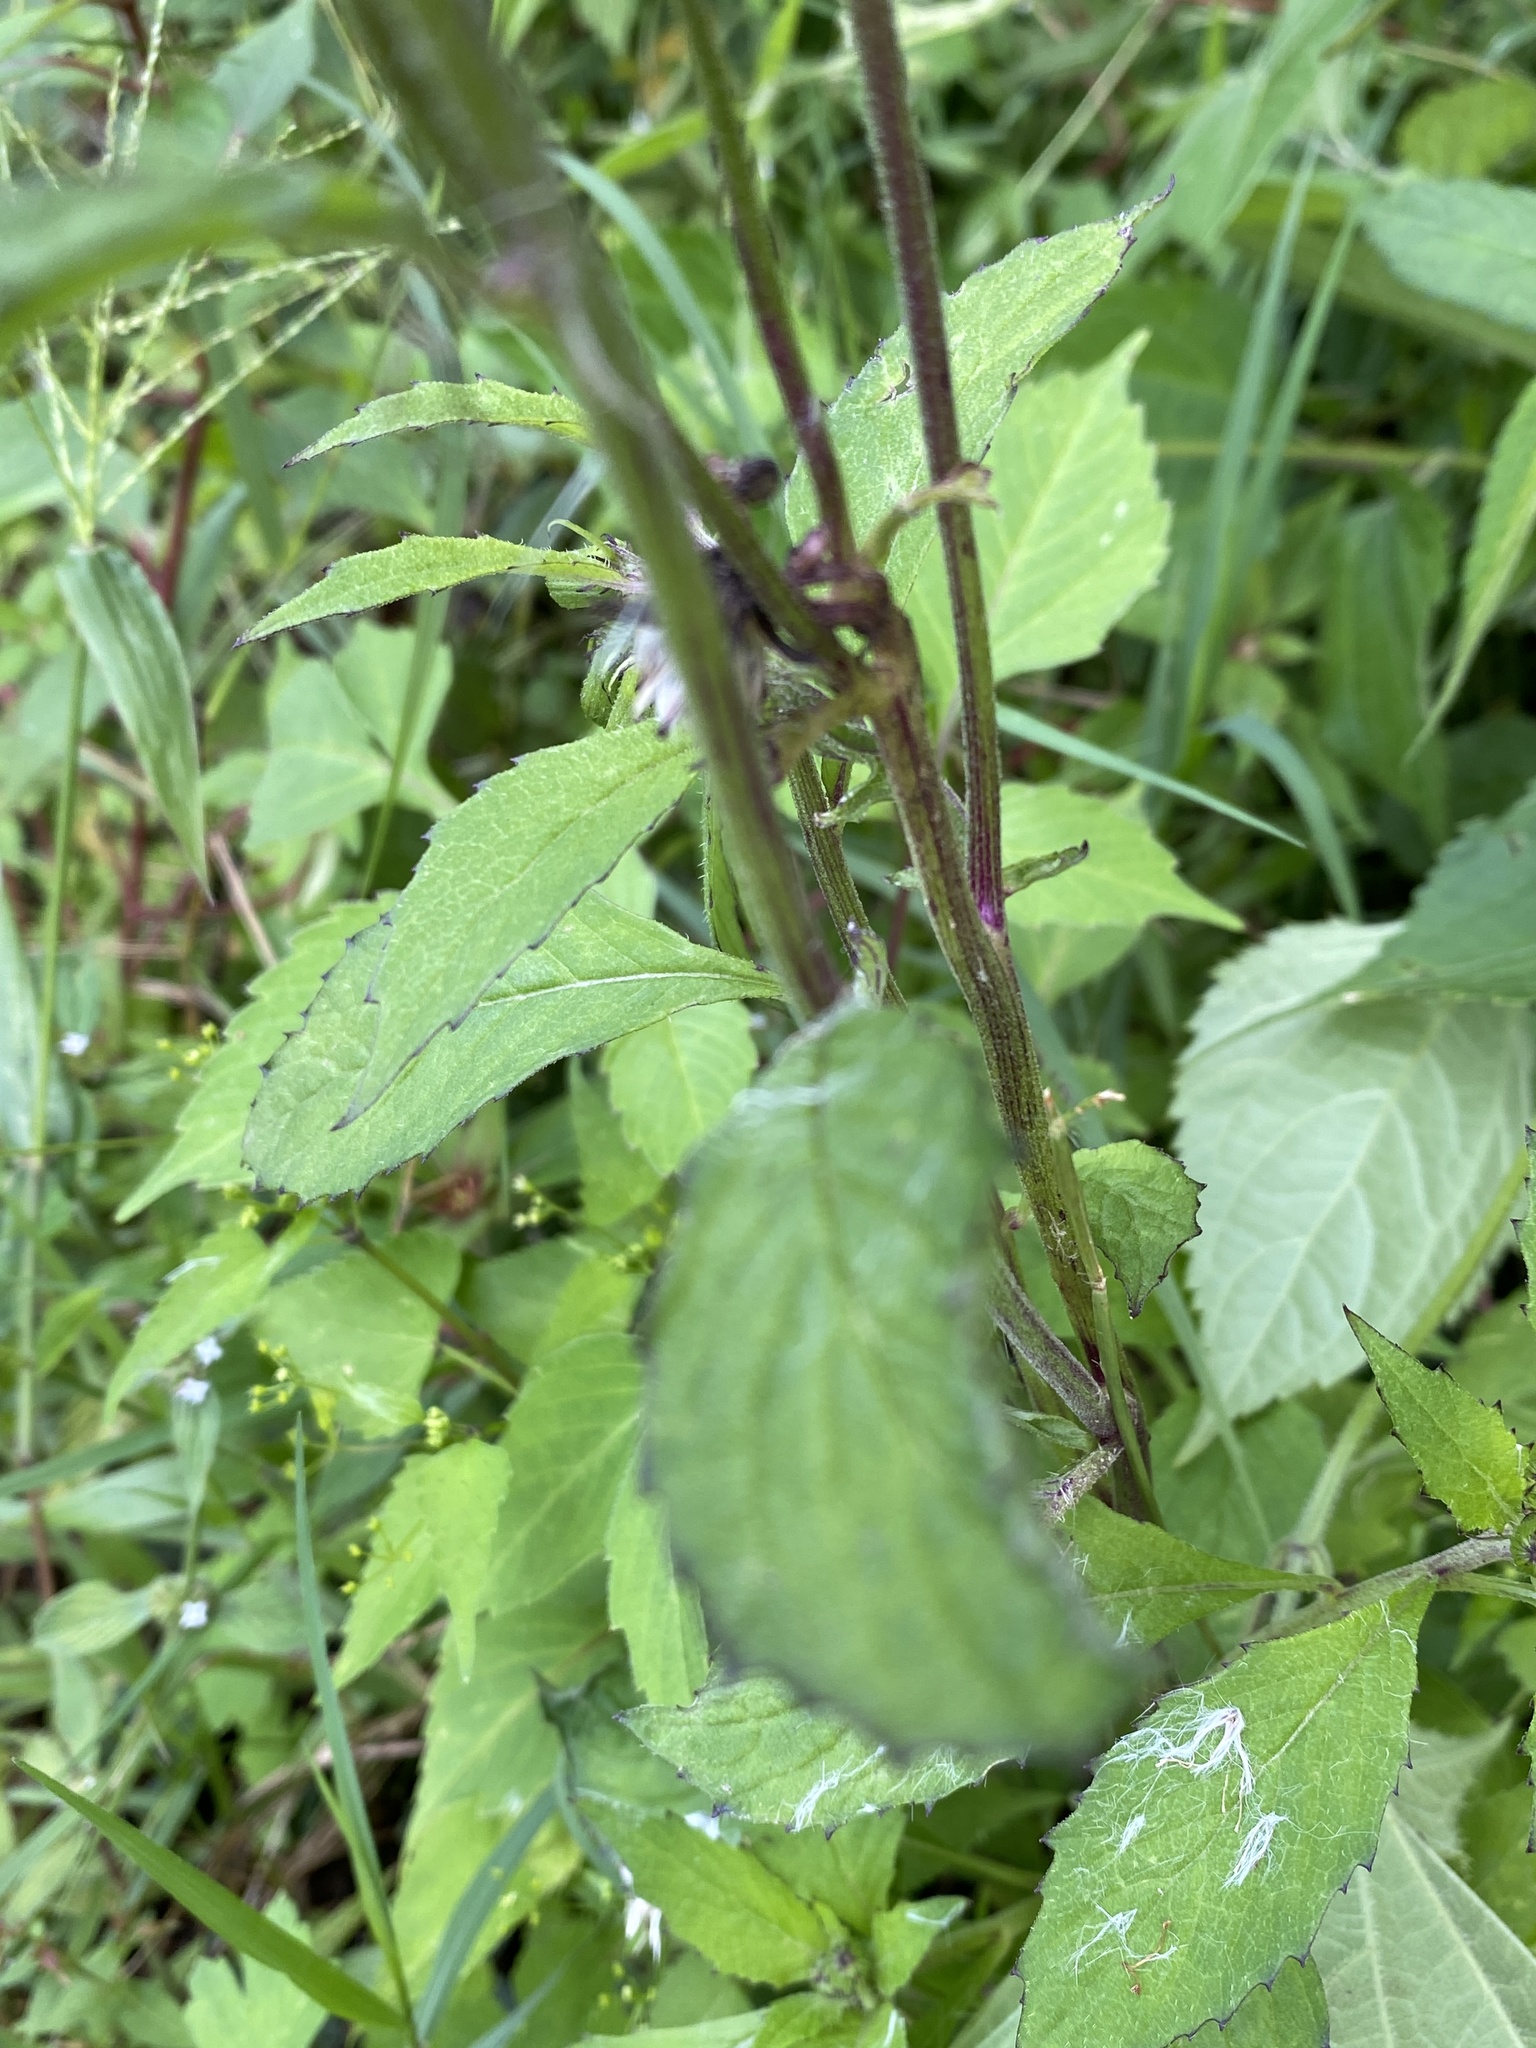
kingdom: Plantae
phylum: Tracheophyta
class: Magnoliopsida
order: Asterales
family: Asteraceae
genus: Crassocephalum
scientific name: Crassocephalum crepidioides
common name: Redflower ragleaf
